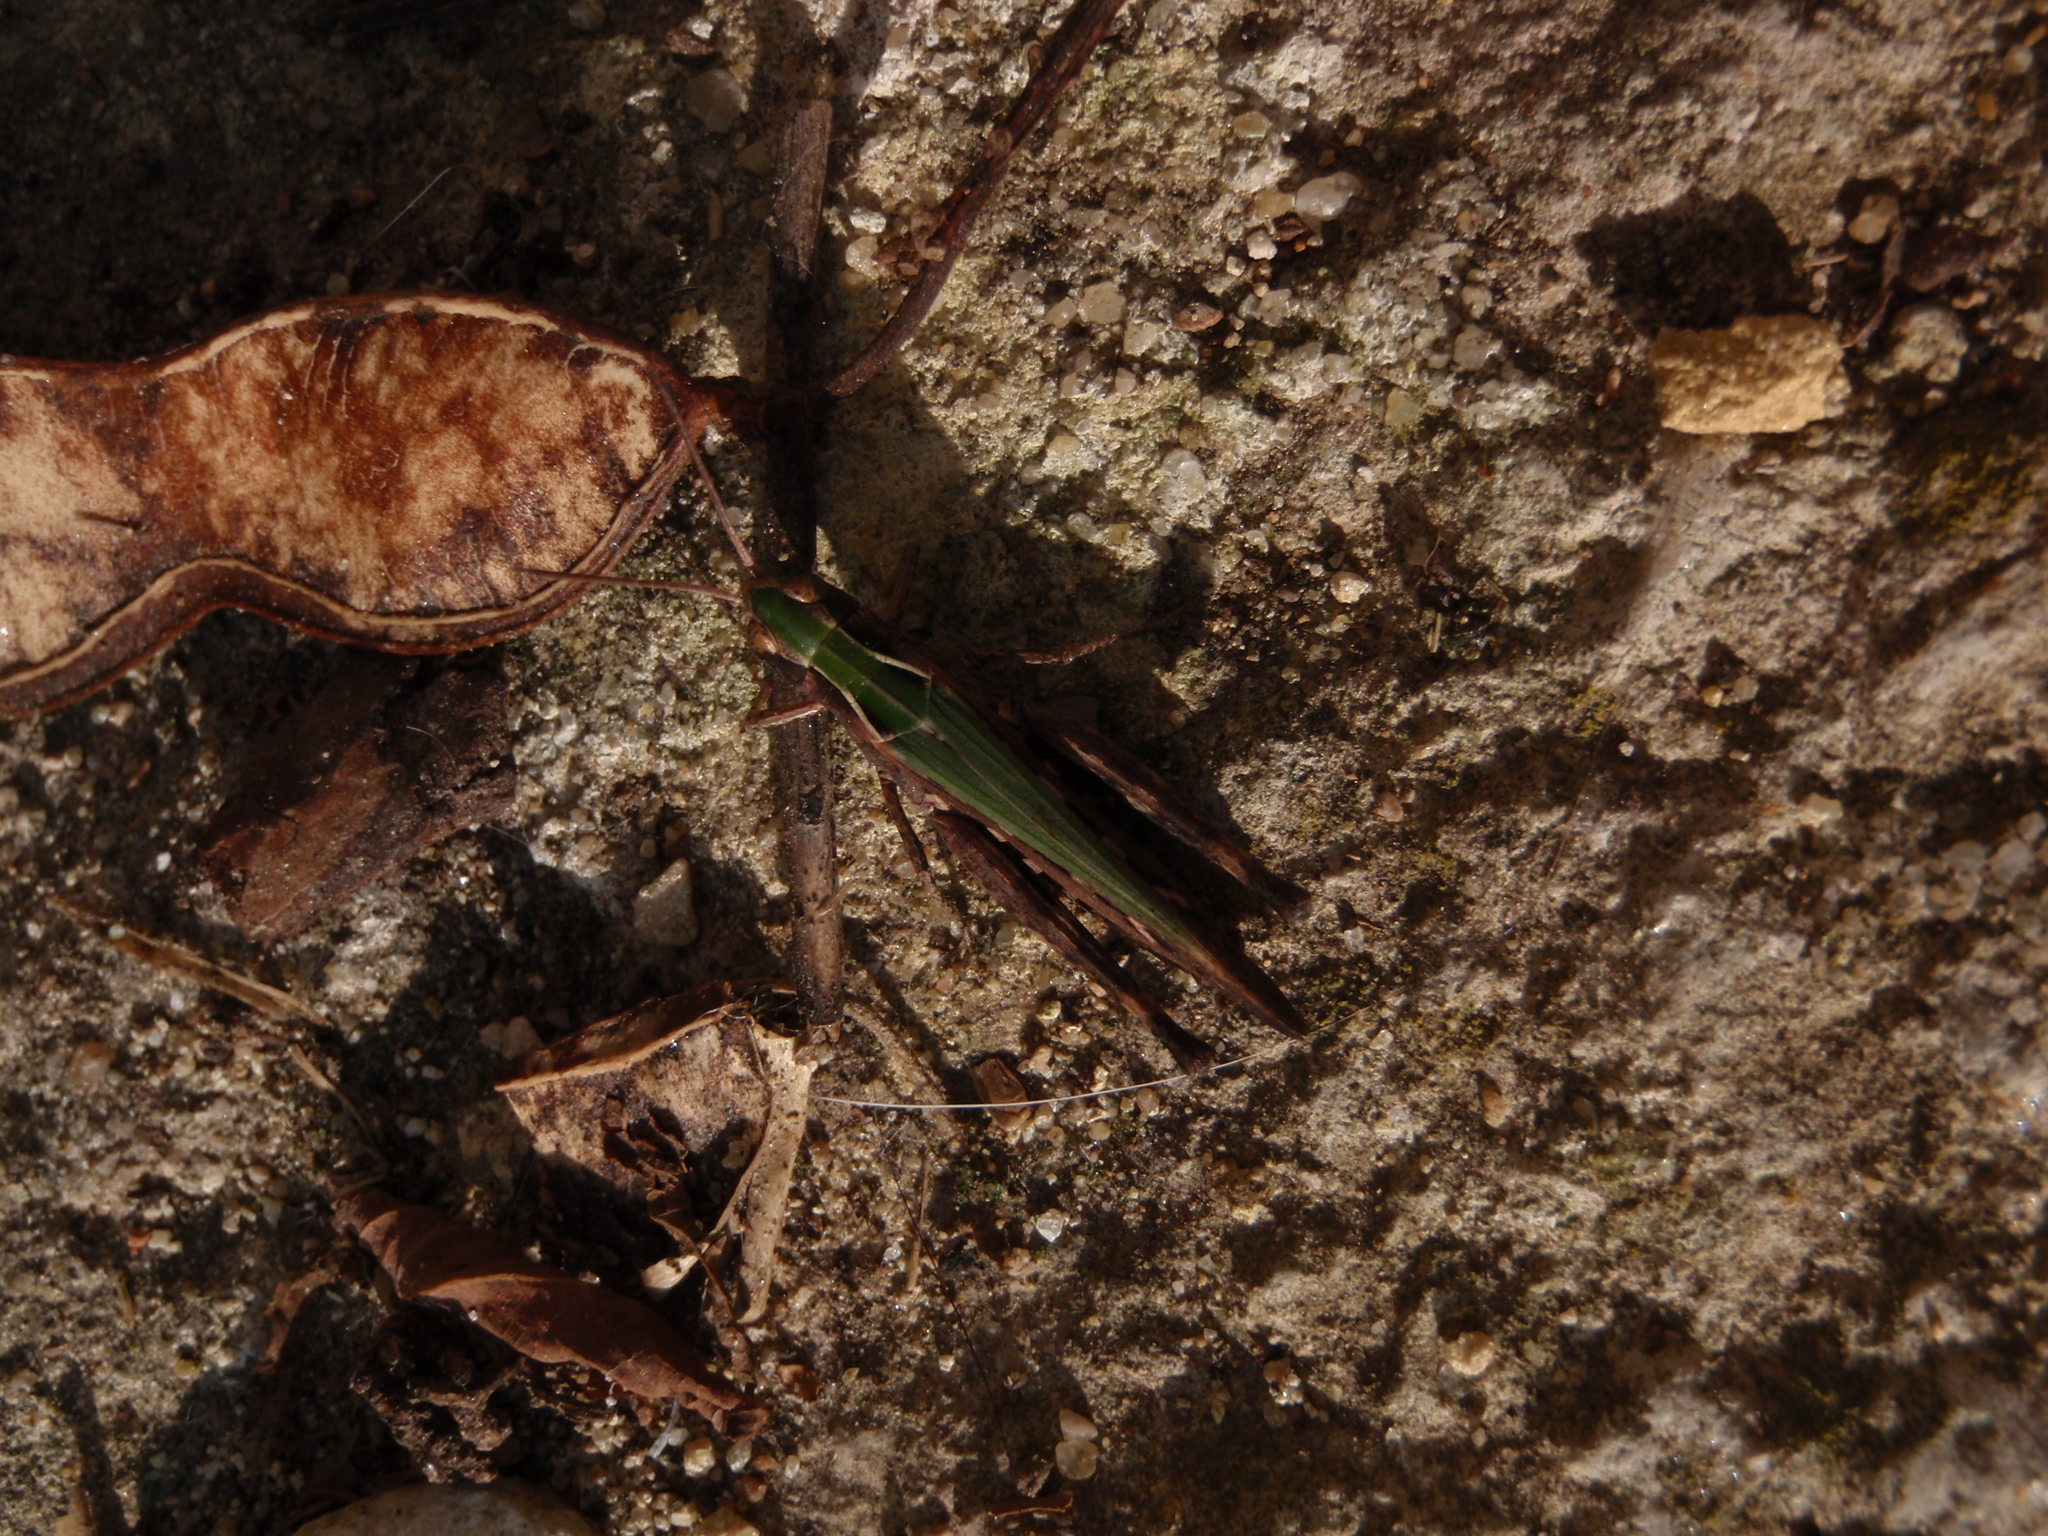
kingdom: Animalia
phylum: Arthropoda
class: Insecta
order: Orthoptera
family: Acrididae
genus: Omocestus
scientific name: Omocestus rufipes
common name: Woodland grasshopper
